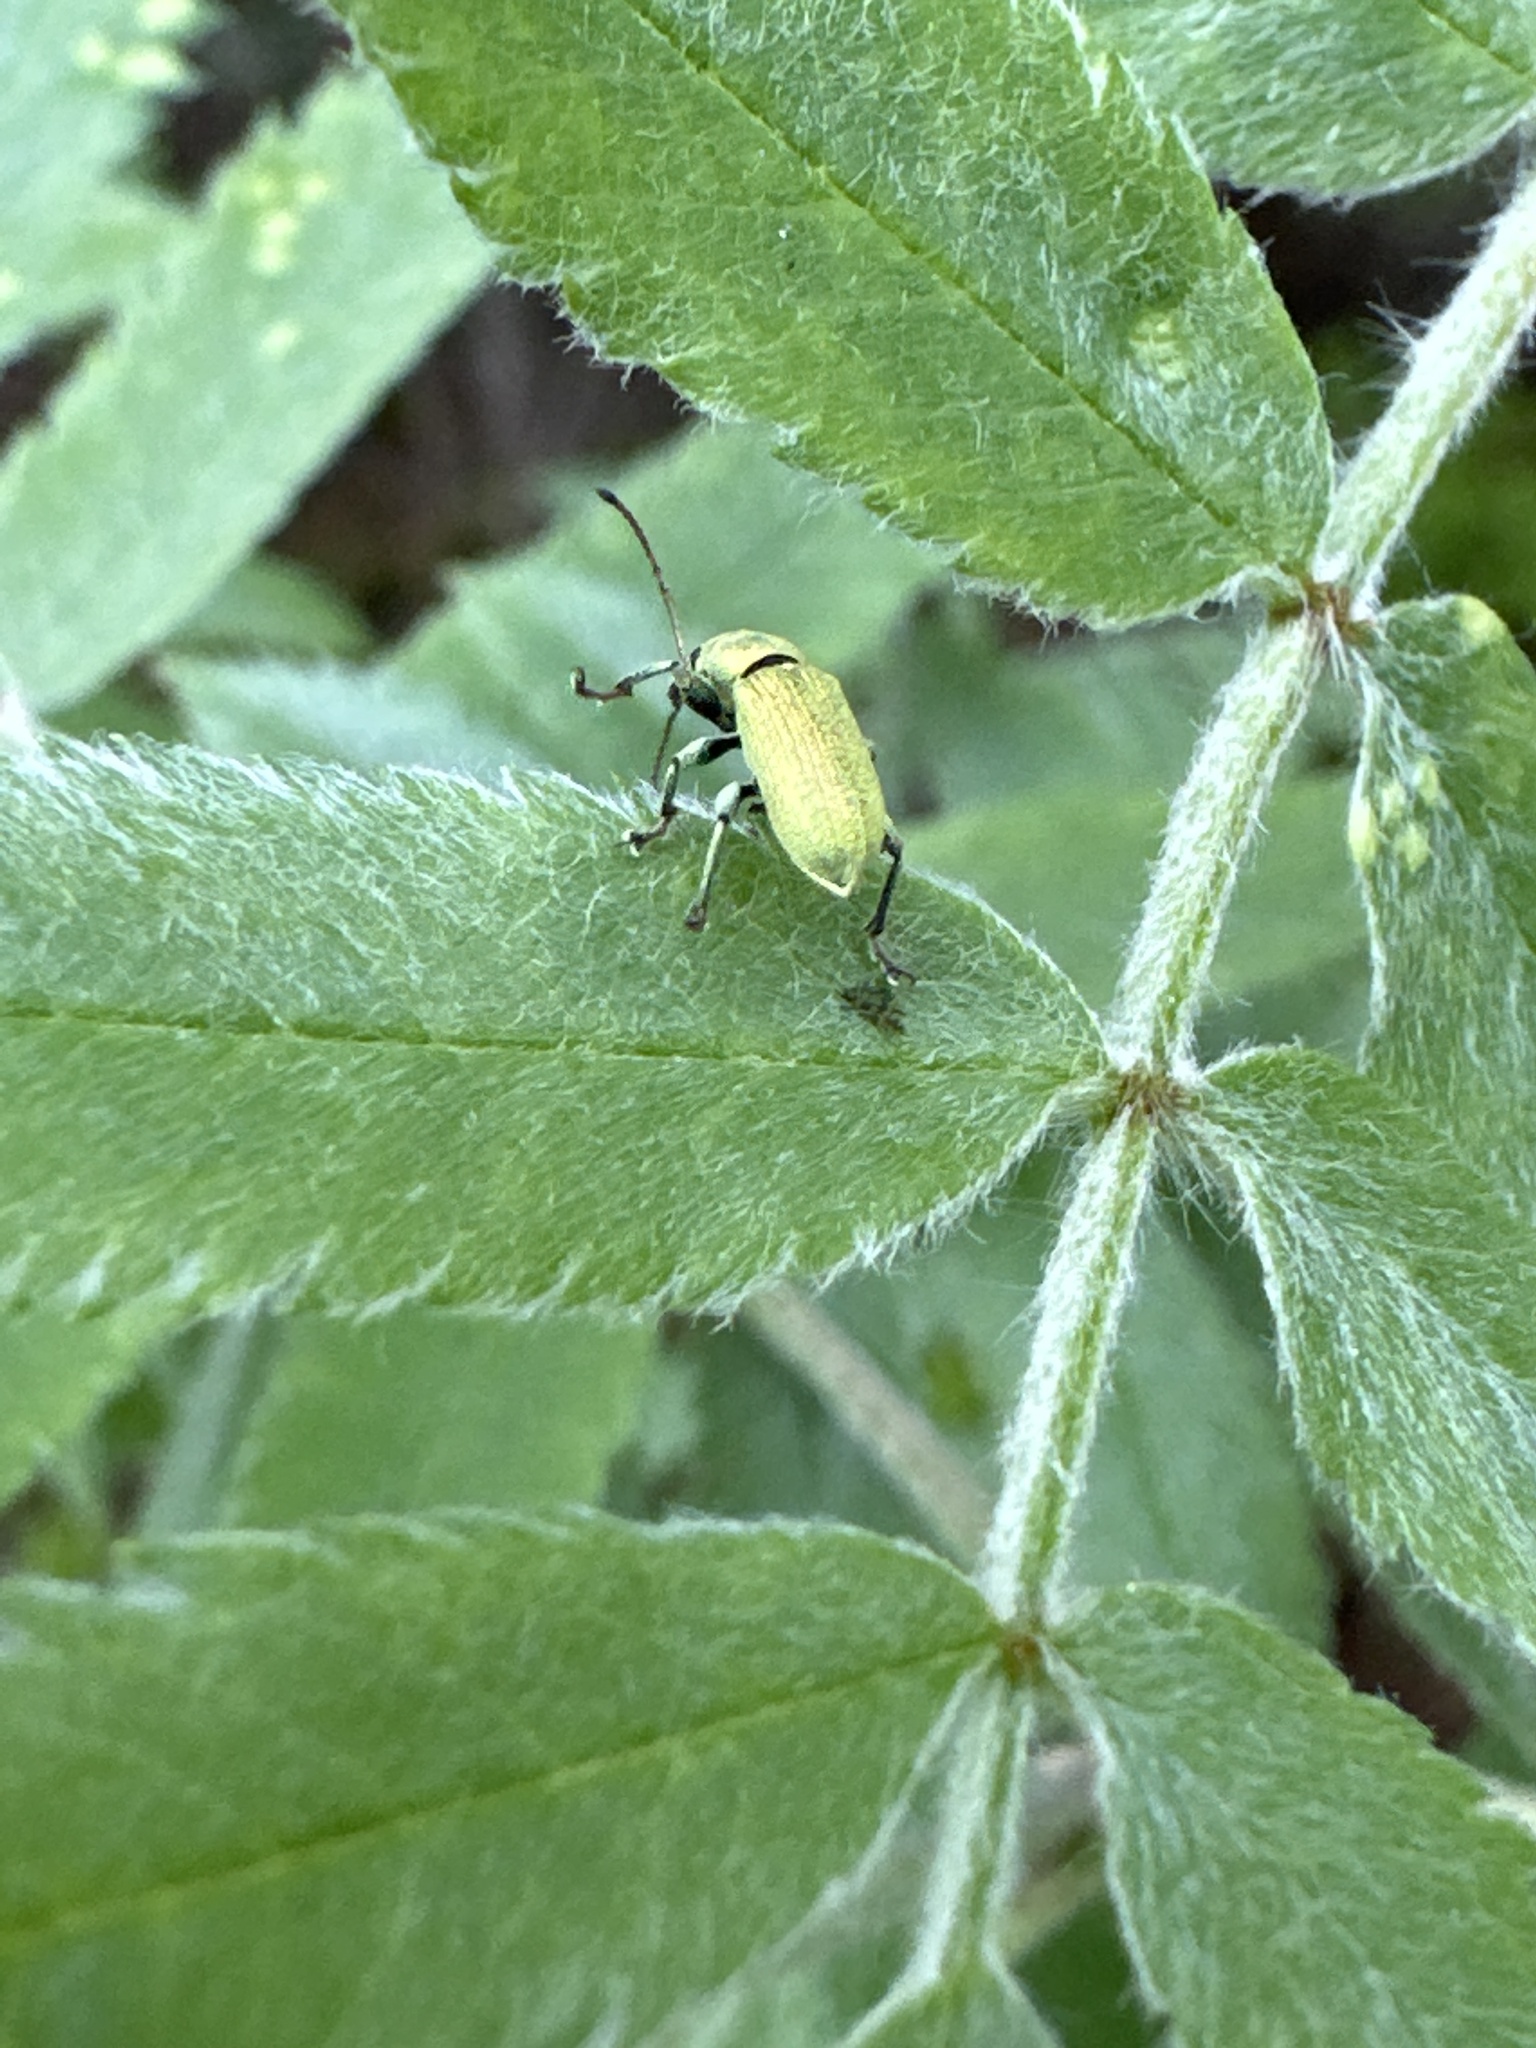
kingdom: Animalia
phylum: Arthropoda
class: Insecta
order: Coleoptera
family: Curculionidae
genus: Phyllobius
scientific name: Phyllobius maculicornis
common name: Green leaf weevil
